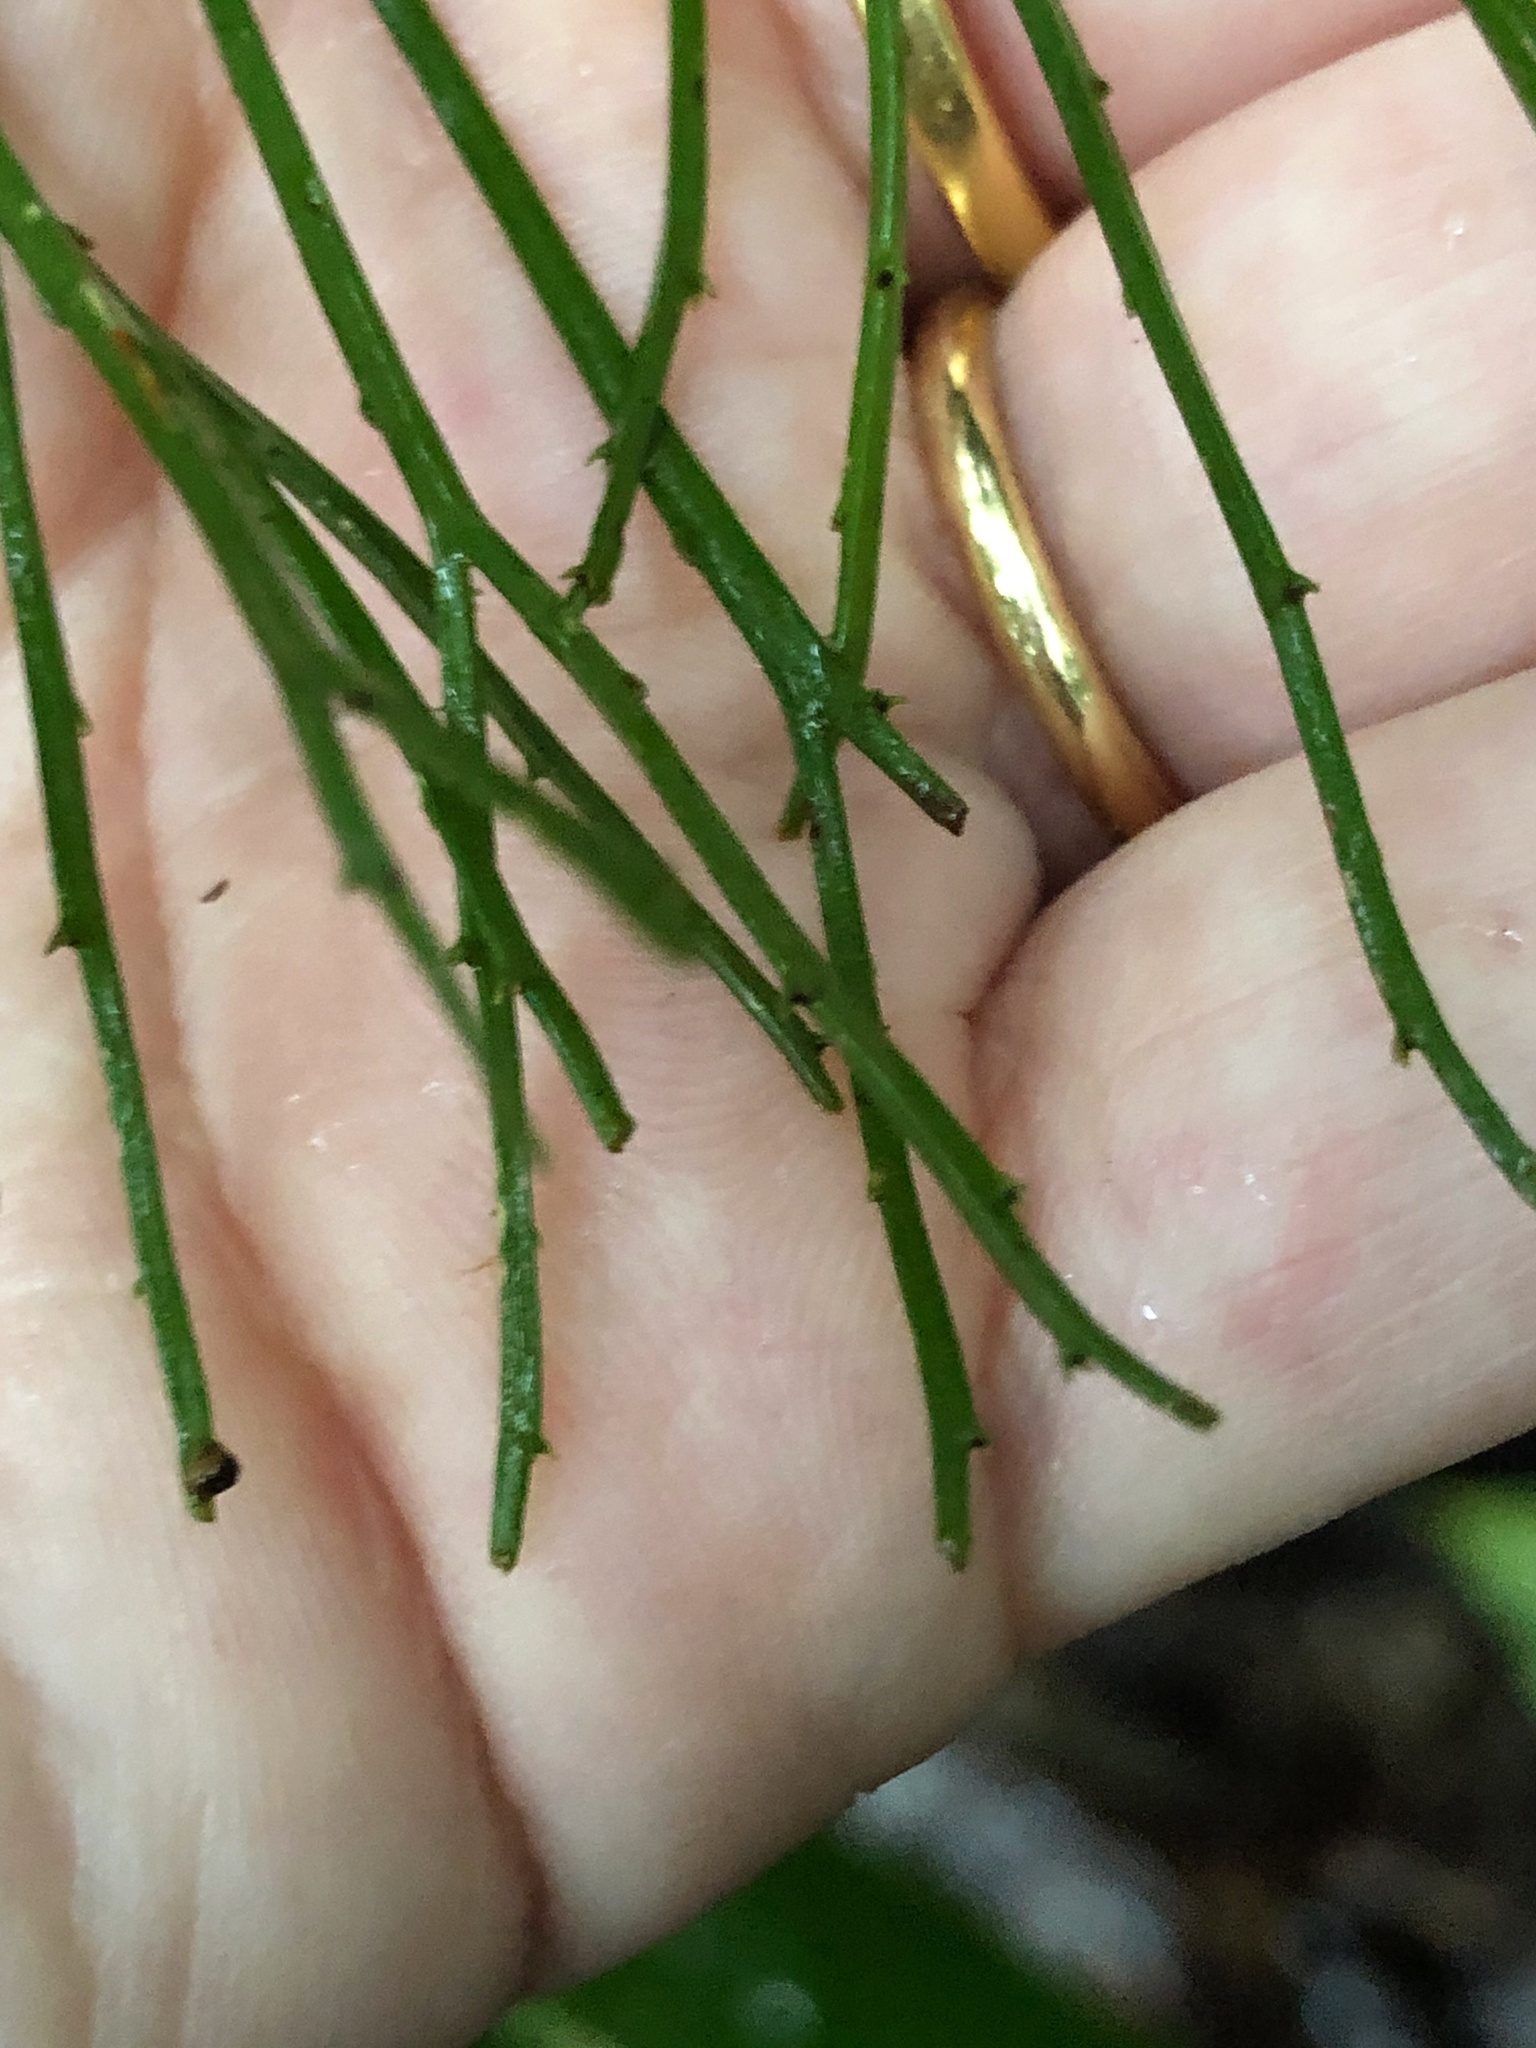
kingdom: Plantae
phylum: Tracheophyta
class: Polypodiopsida
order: Psilotales
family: Psilotaceae
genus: Psilotum
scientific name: Psilotum nudum
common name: Skeleton fork fern
